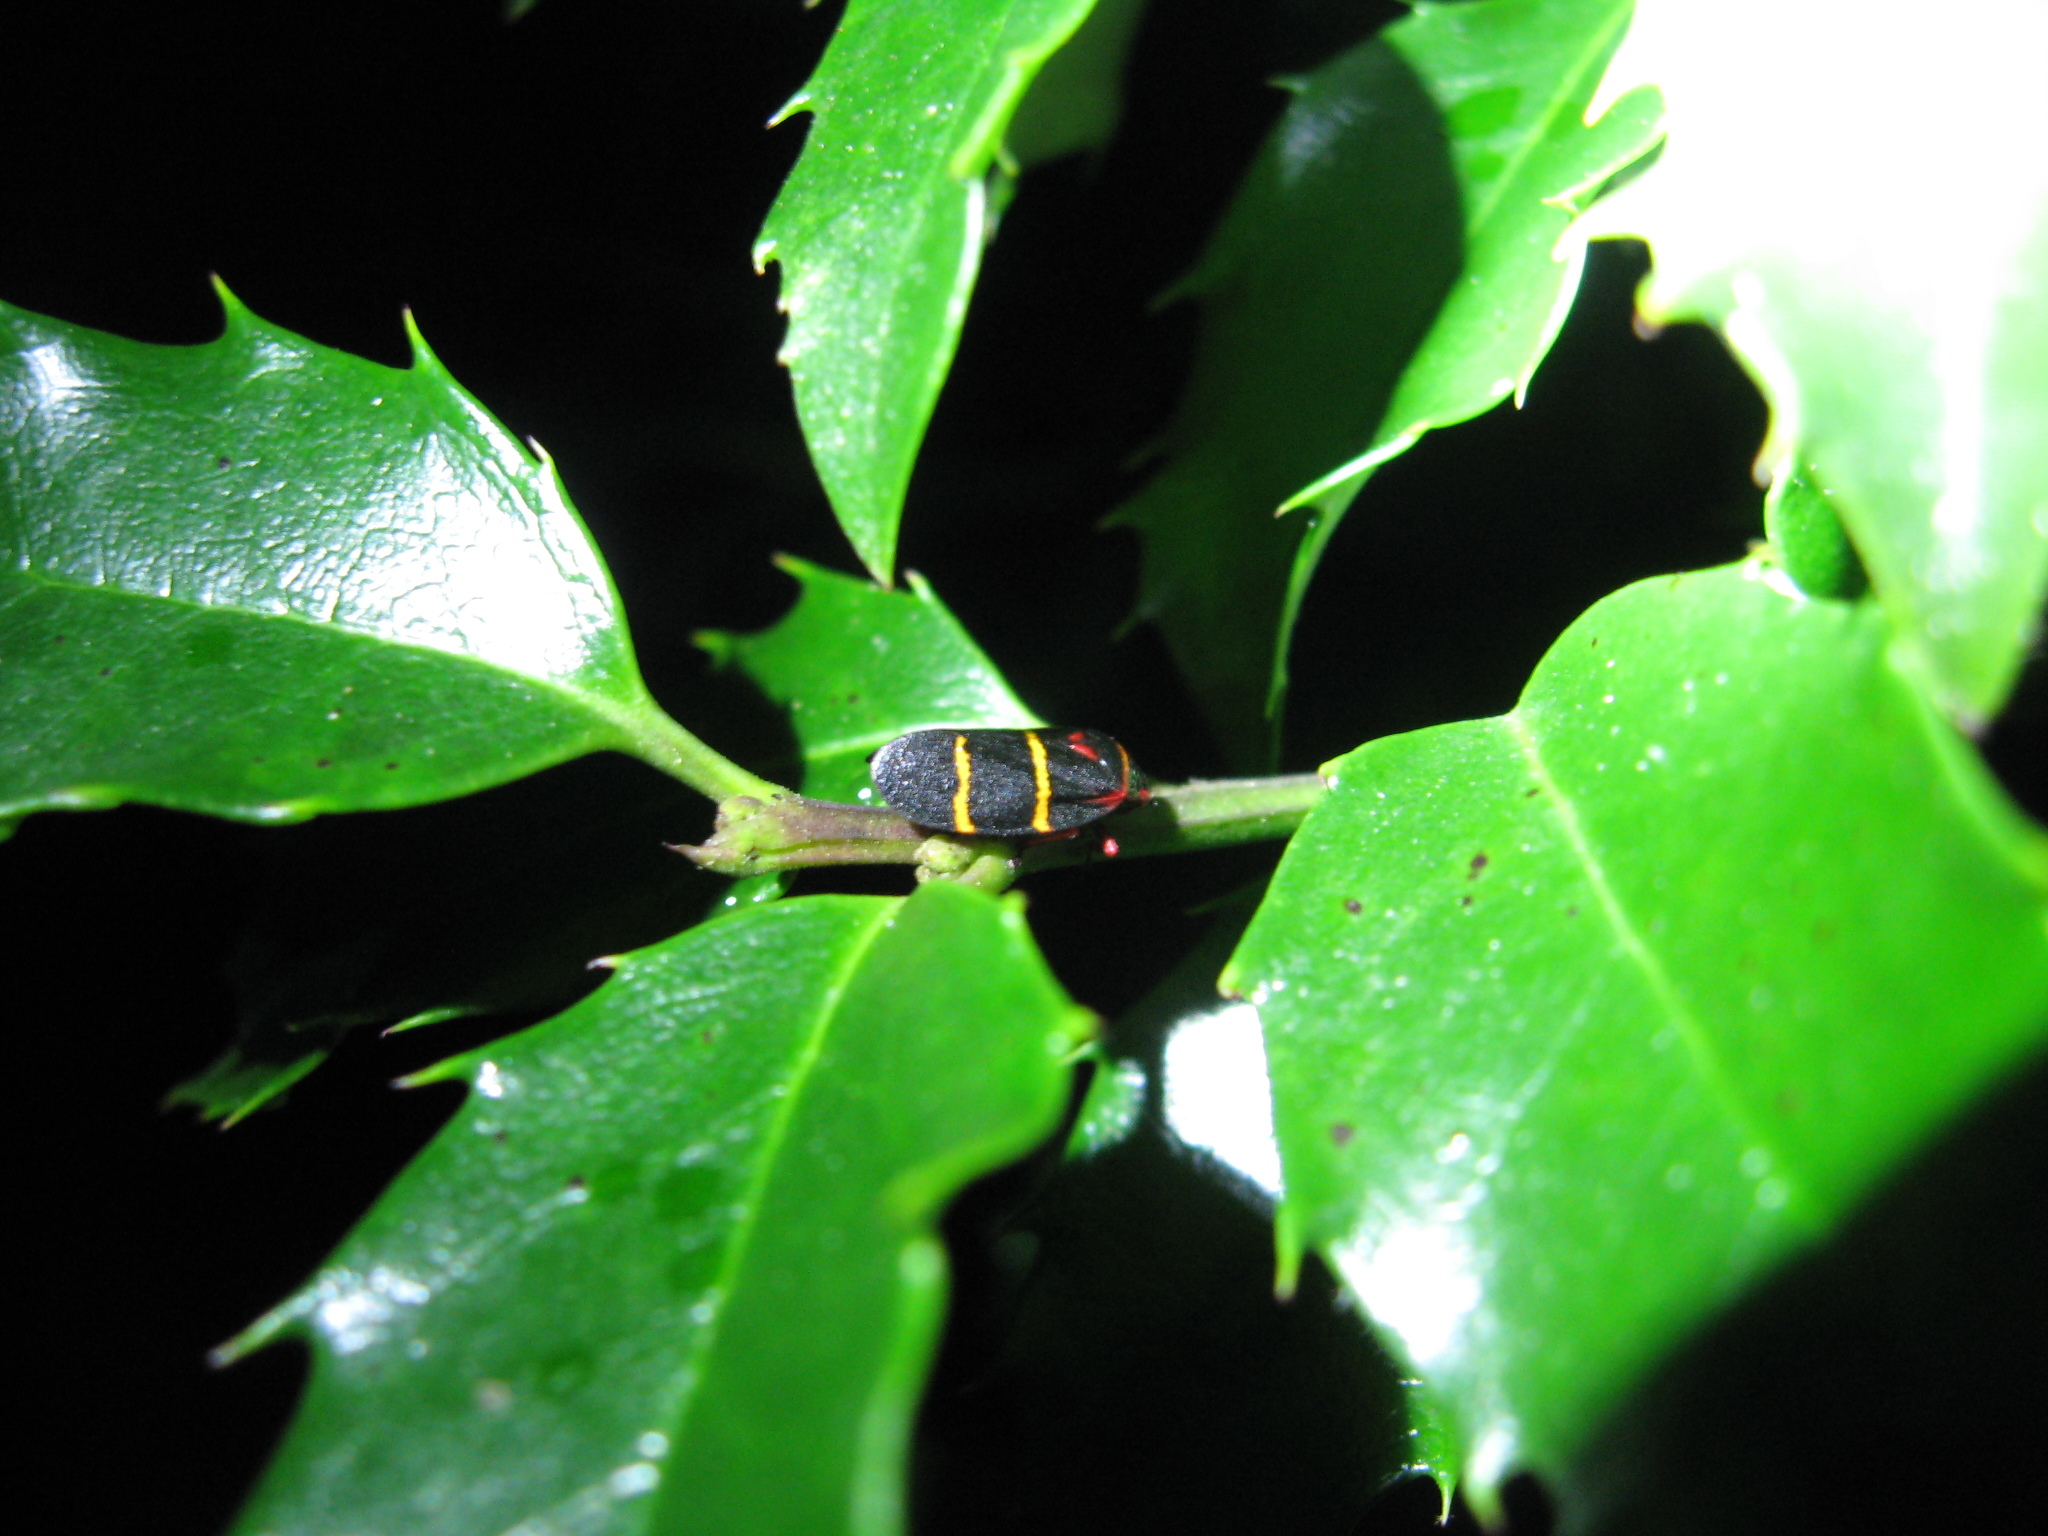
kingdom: Animalia
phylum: Arthropoda
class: Insecta
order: Hemiptera
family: Cercopidae
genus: Prosapia
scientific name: Prosapia bicincta
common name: Twolined spittlebug
